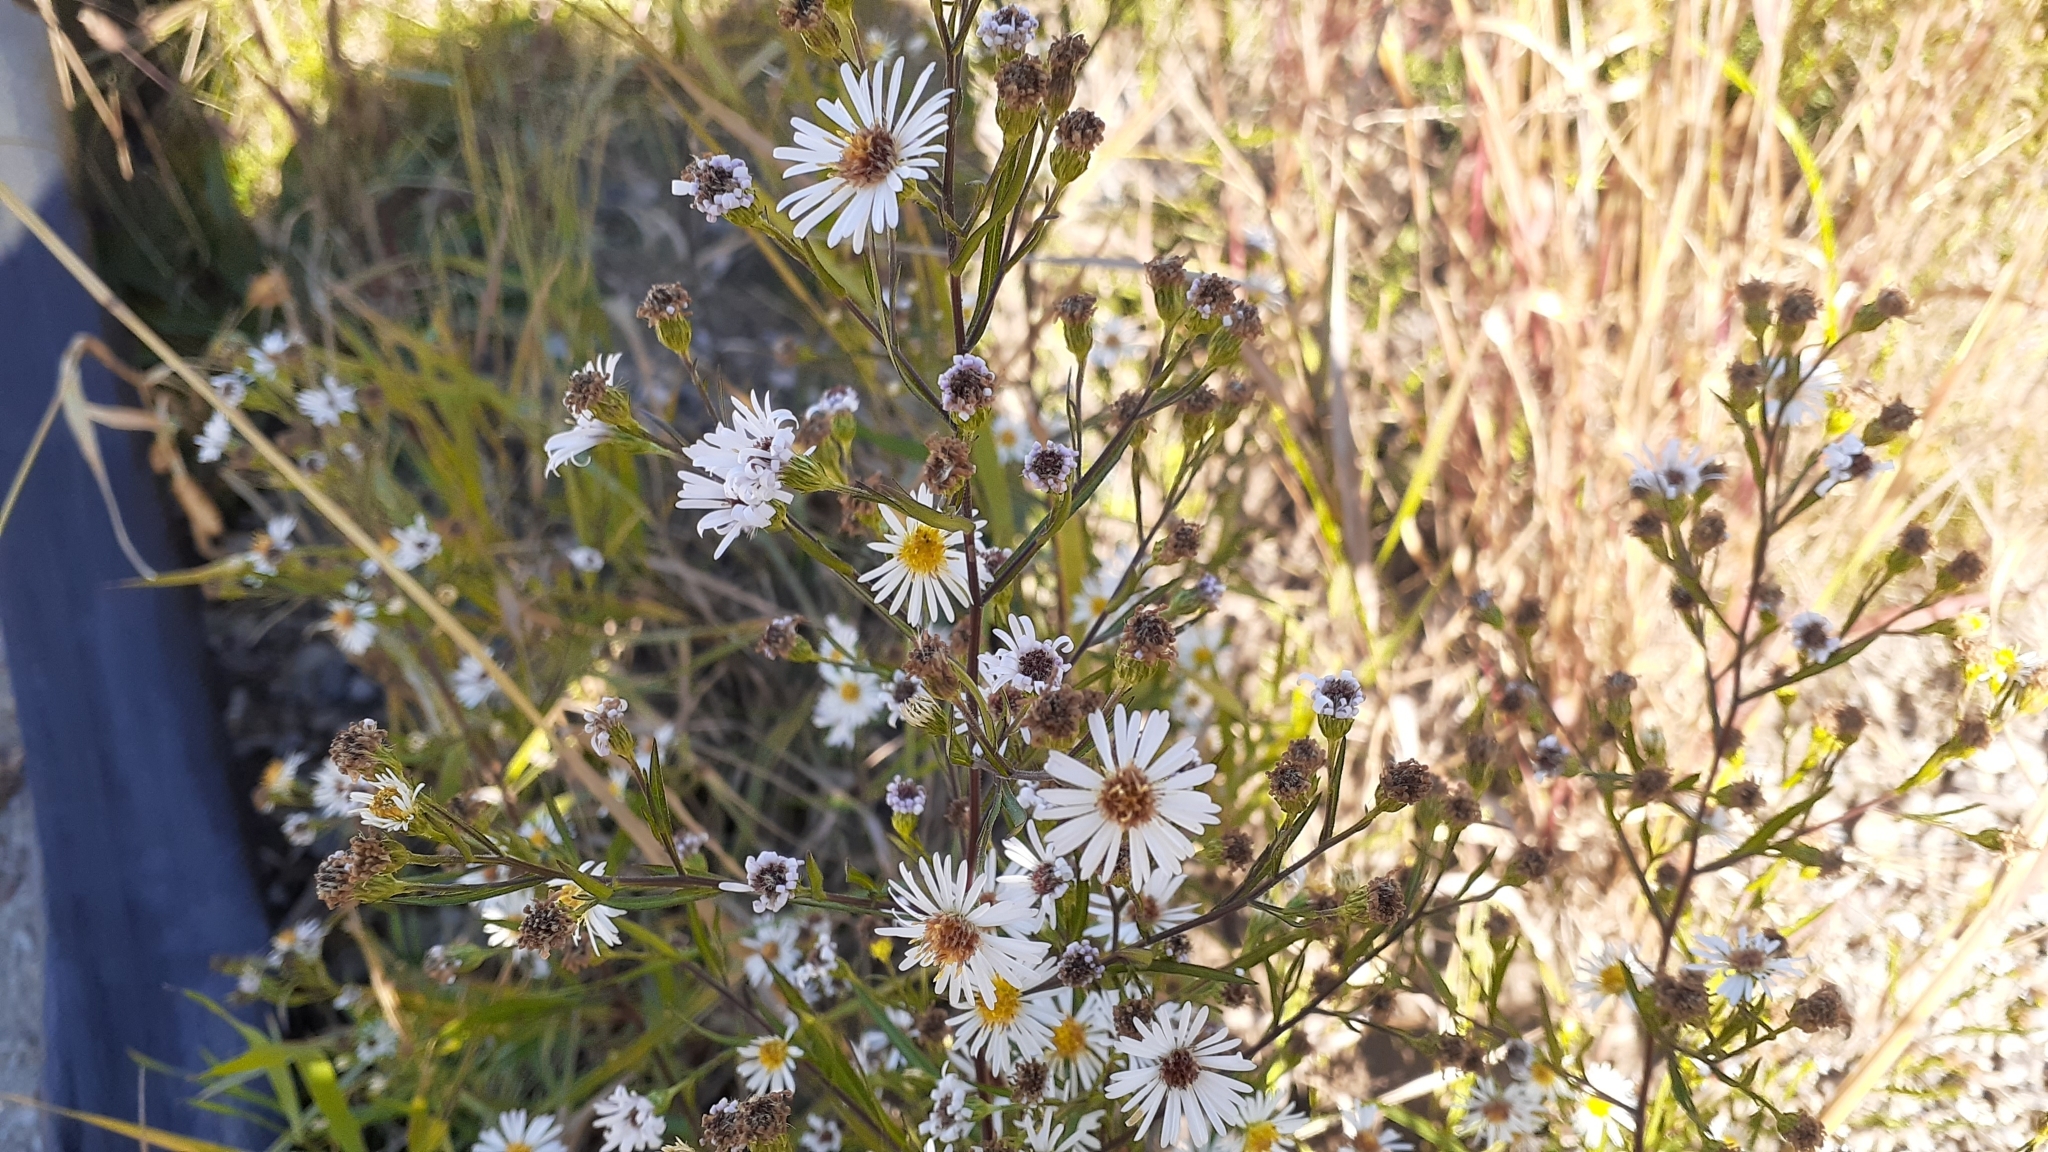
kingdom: Plantae
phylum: Tracheophyta
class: Magnoliopsida
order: Asterales
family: Asteraceae
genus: Symphyotrichum
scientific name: Symphyotrichum lanceolatum
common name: Panicled aster
